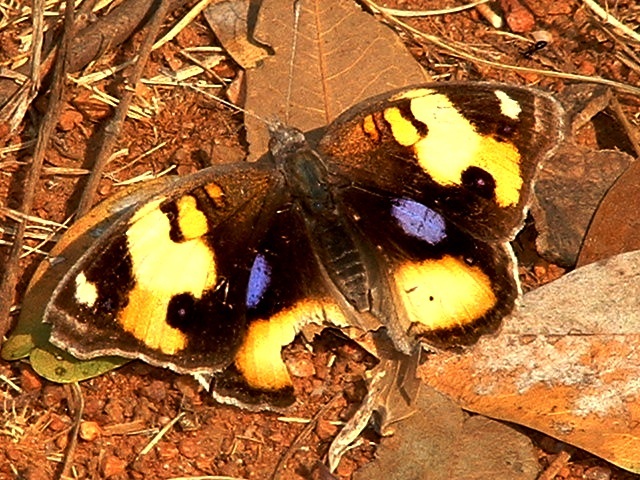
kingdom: Animalia
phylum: Arthropoda
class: Insecta
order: Lepidoptera
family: Nymphalidae
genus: Junonia
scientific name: Junonia hierta
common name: Yellow pansy
